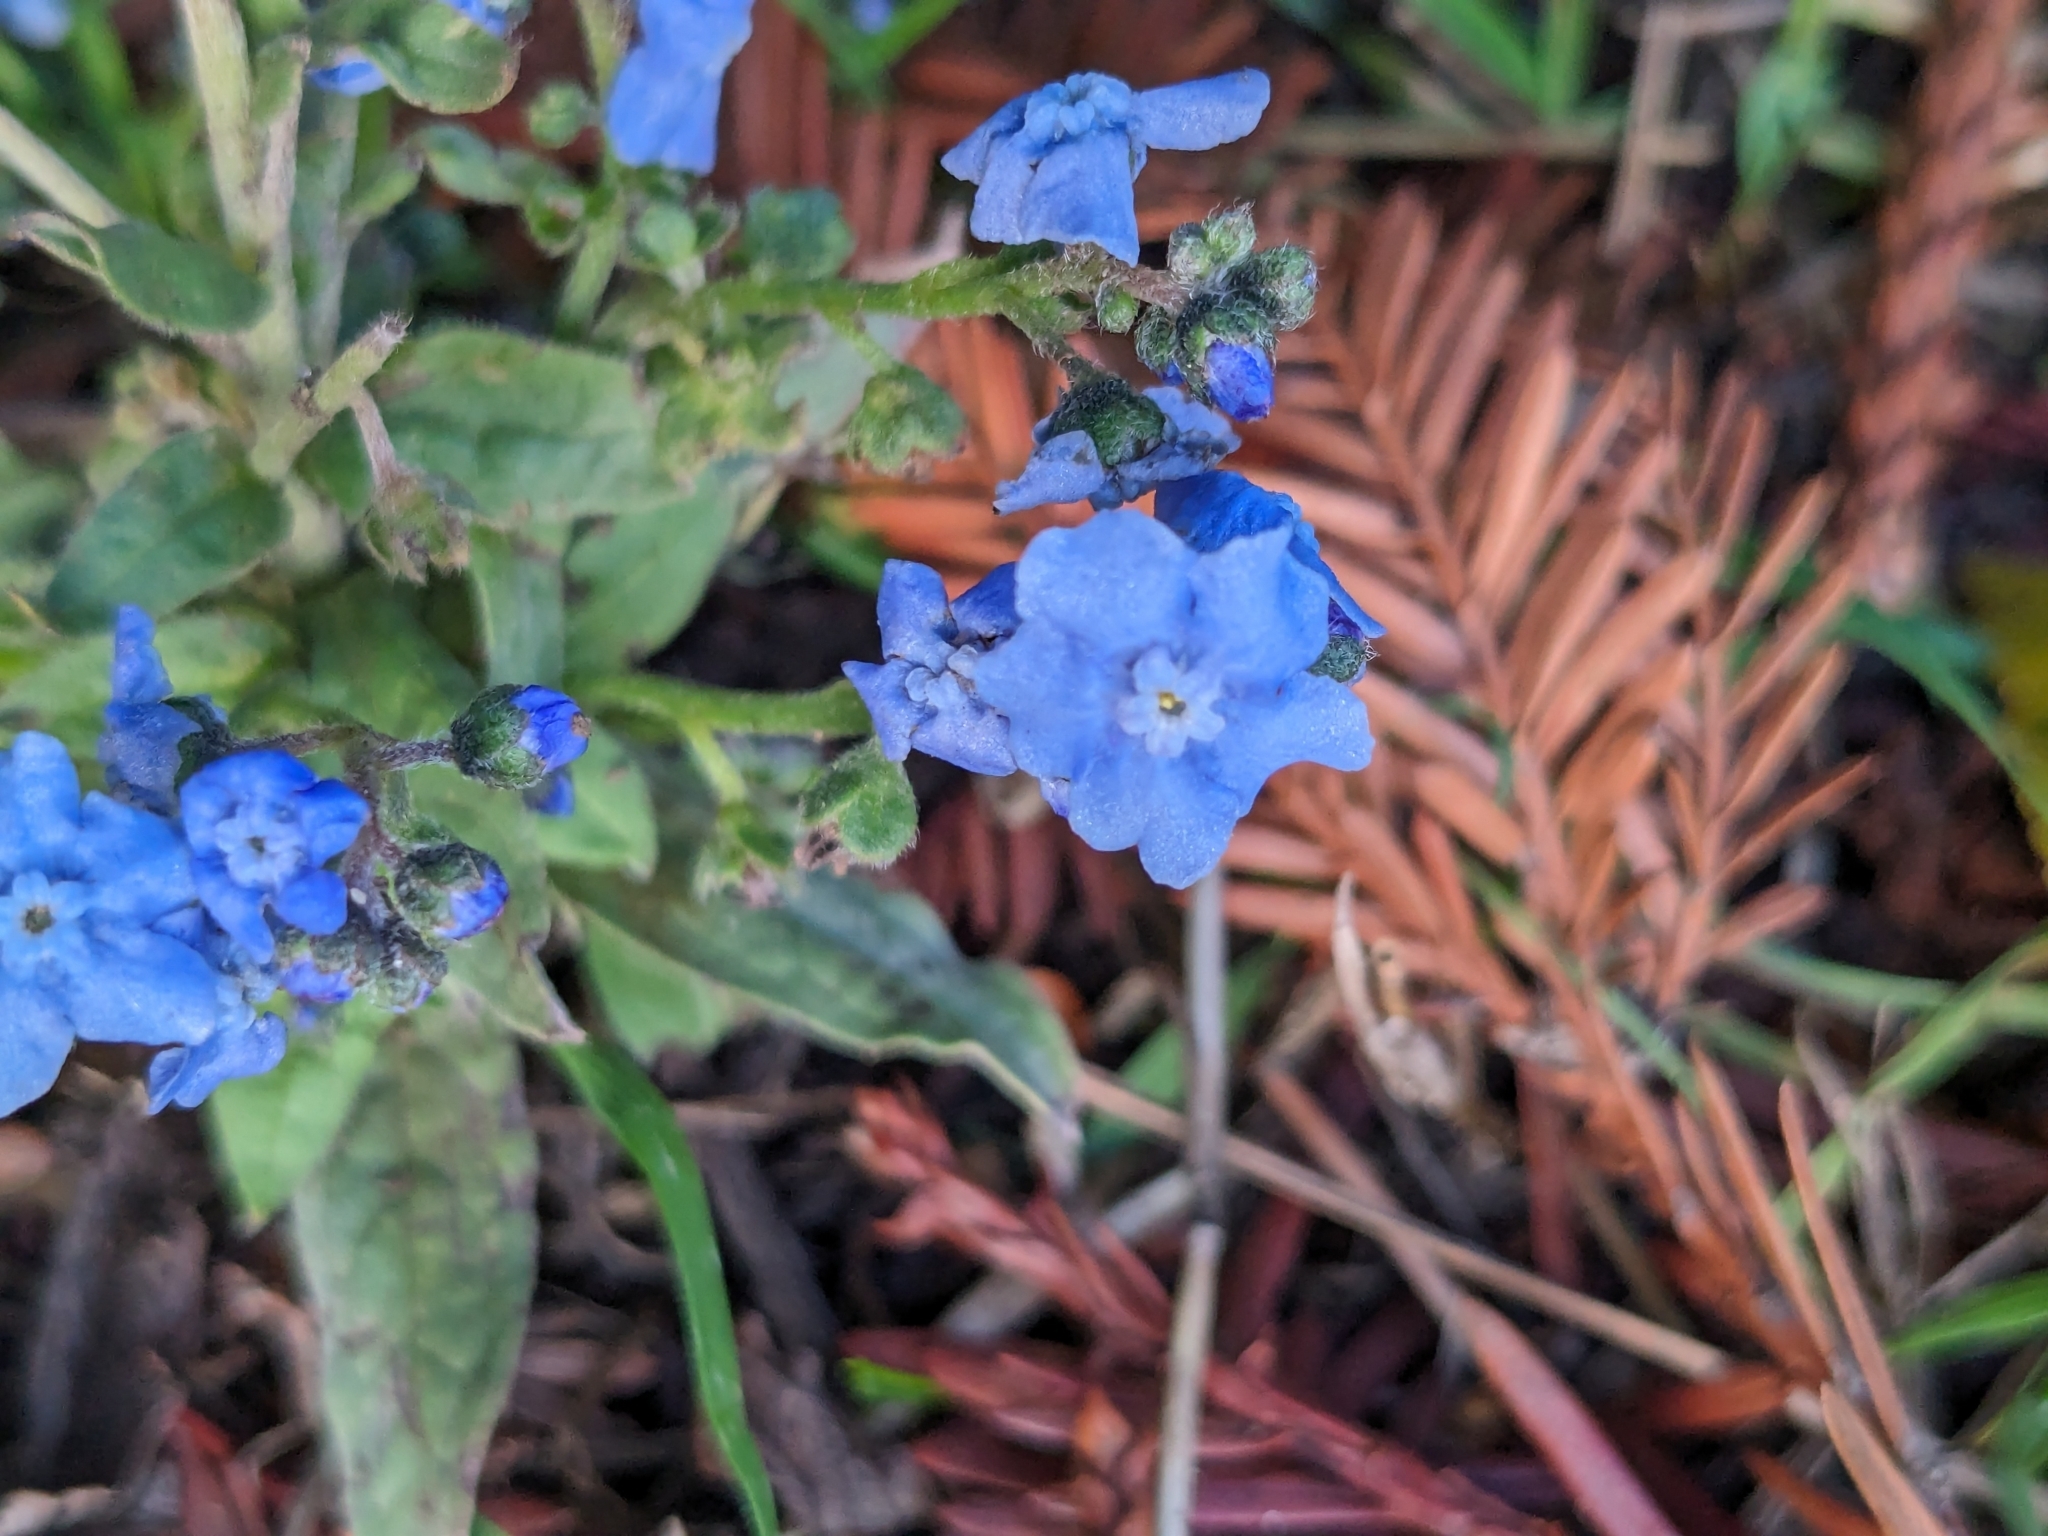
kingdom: Plantae
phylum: Tracheophyta
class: Magnoliopsida
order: Boraginales
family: Boraginaceae
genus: Cynoglossum
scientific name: Cynoglossum amabile
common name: Chinese hound's tongue
